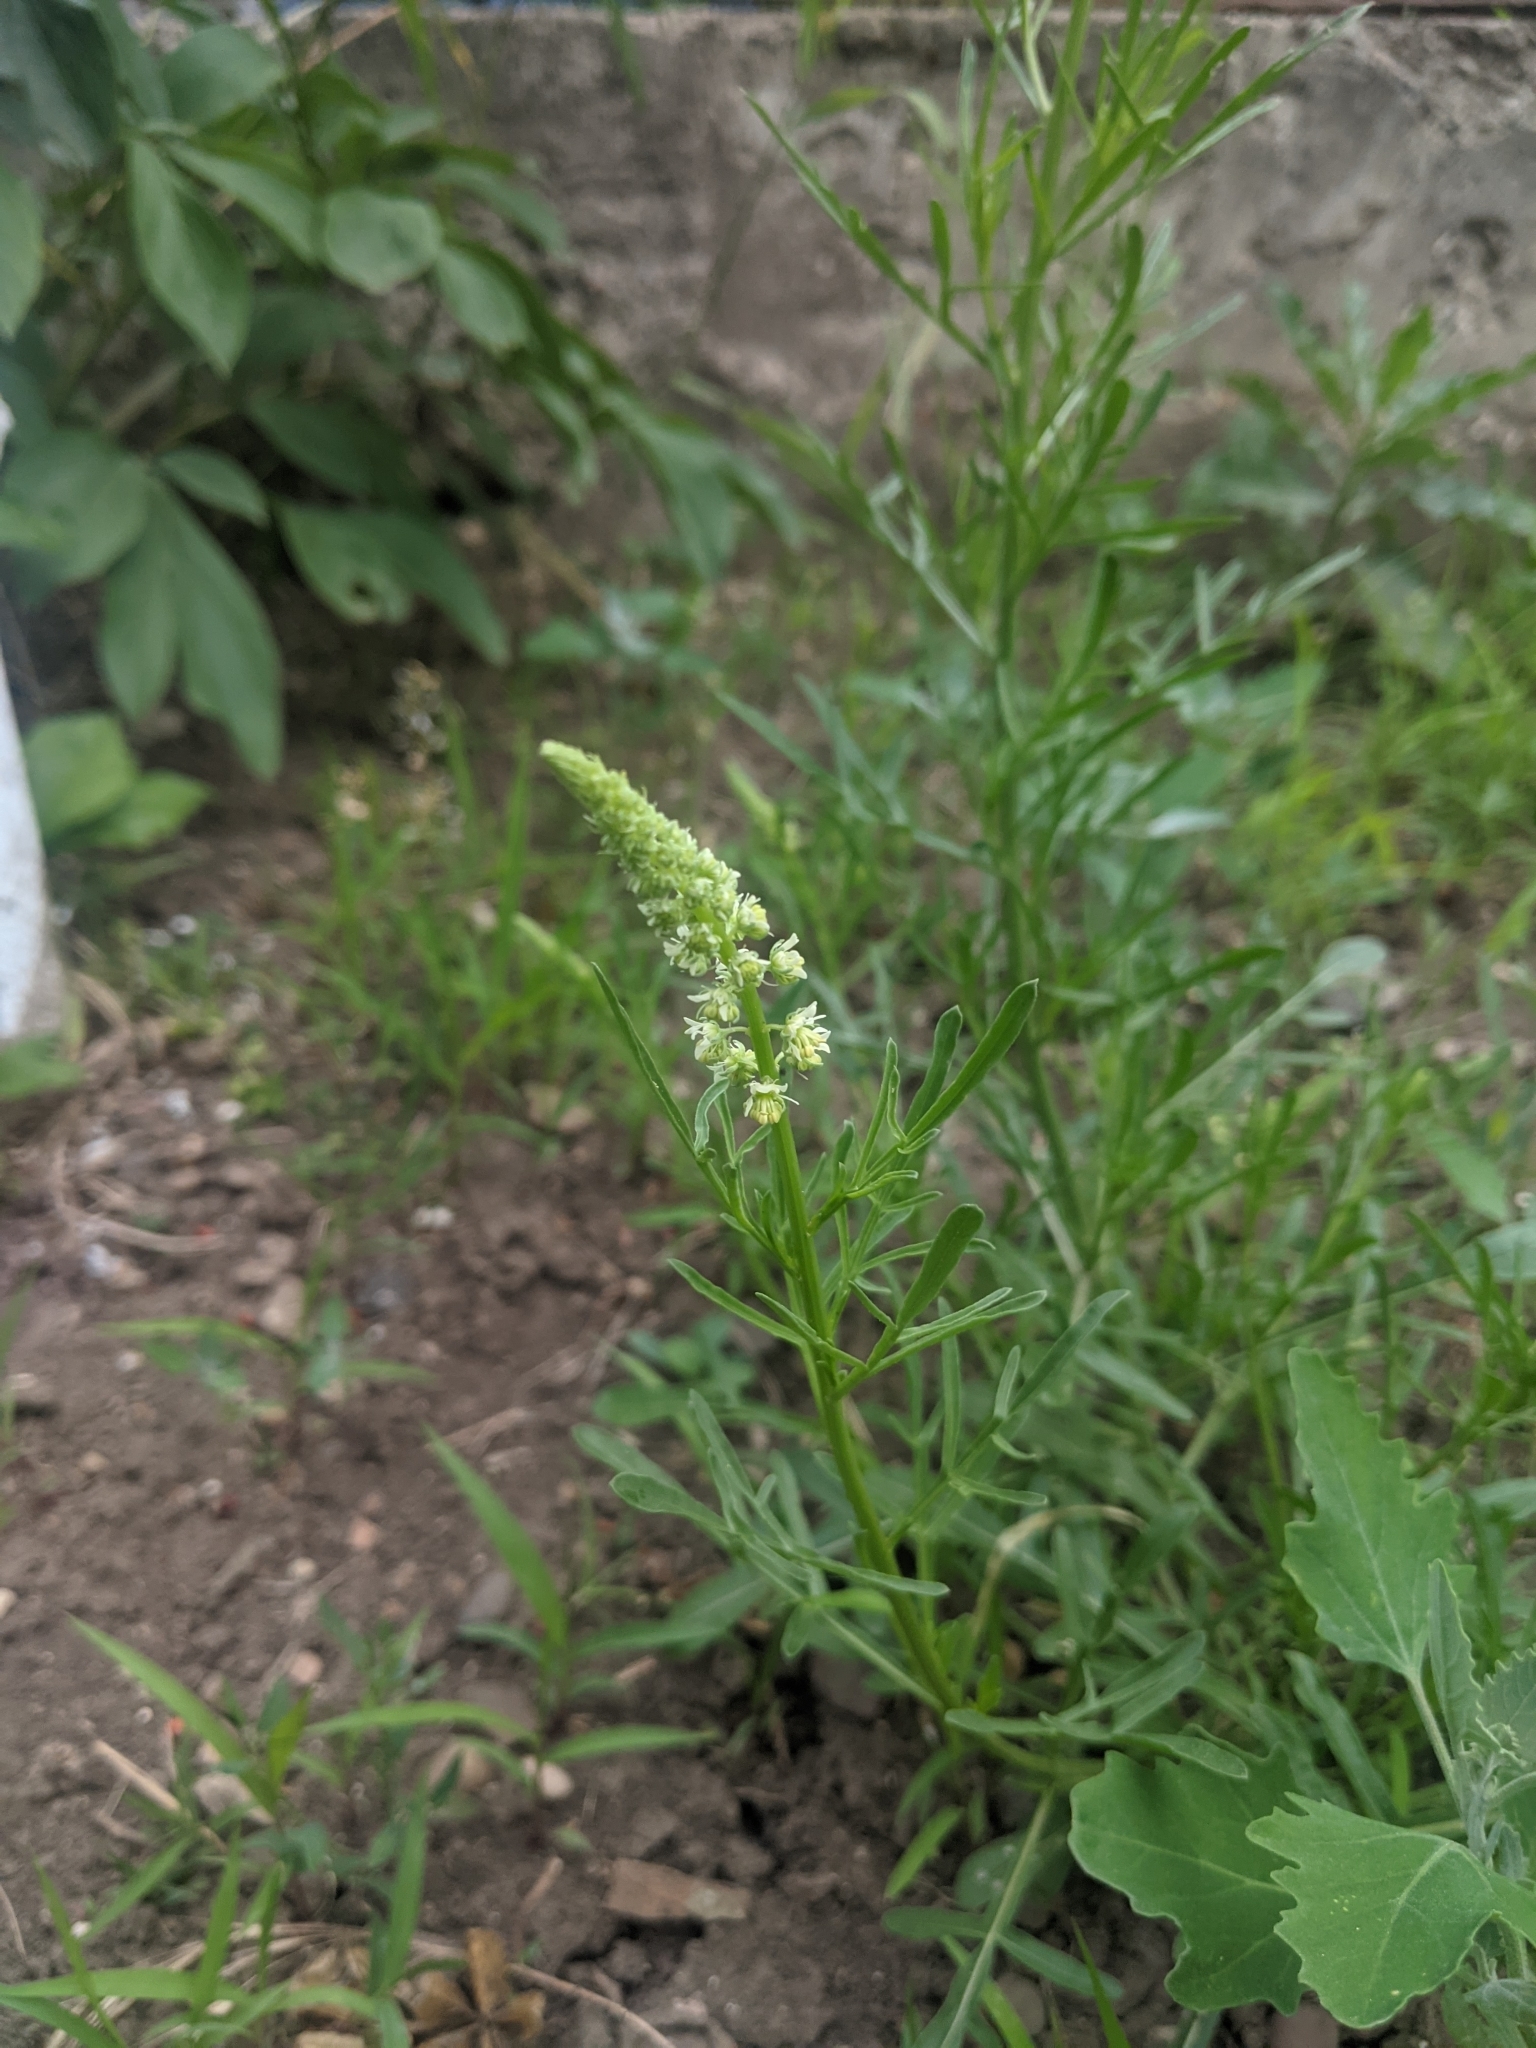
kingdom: Plantae
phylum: Tracheophyta
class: Magnoliopsida
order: Brassicales
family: Resedaceae
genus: Reseda
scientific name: Reseda lutea
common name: Wild mignonette
